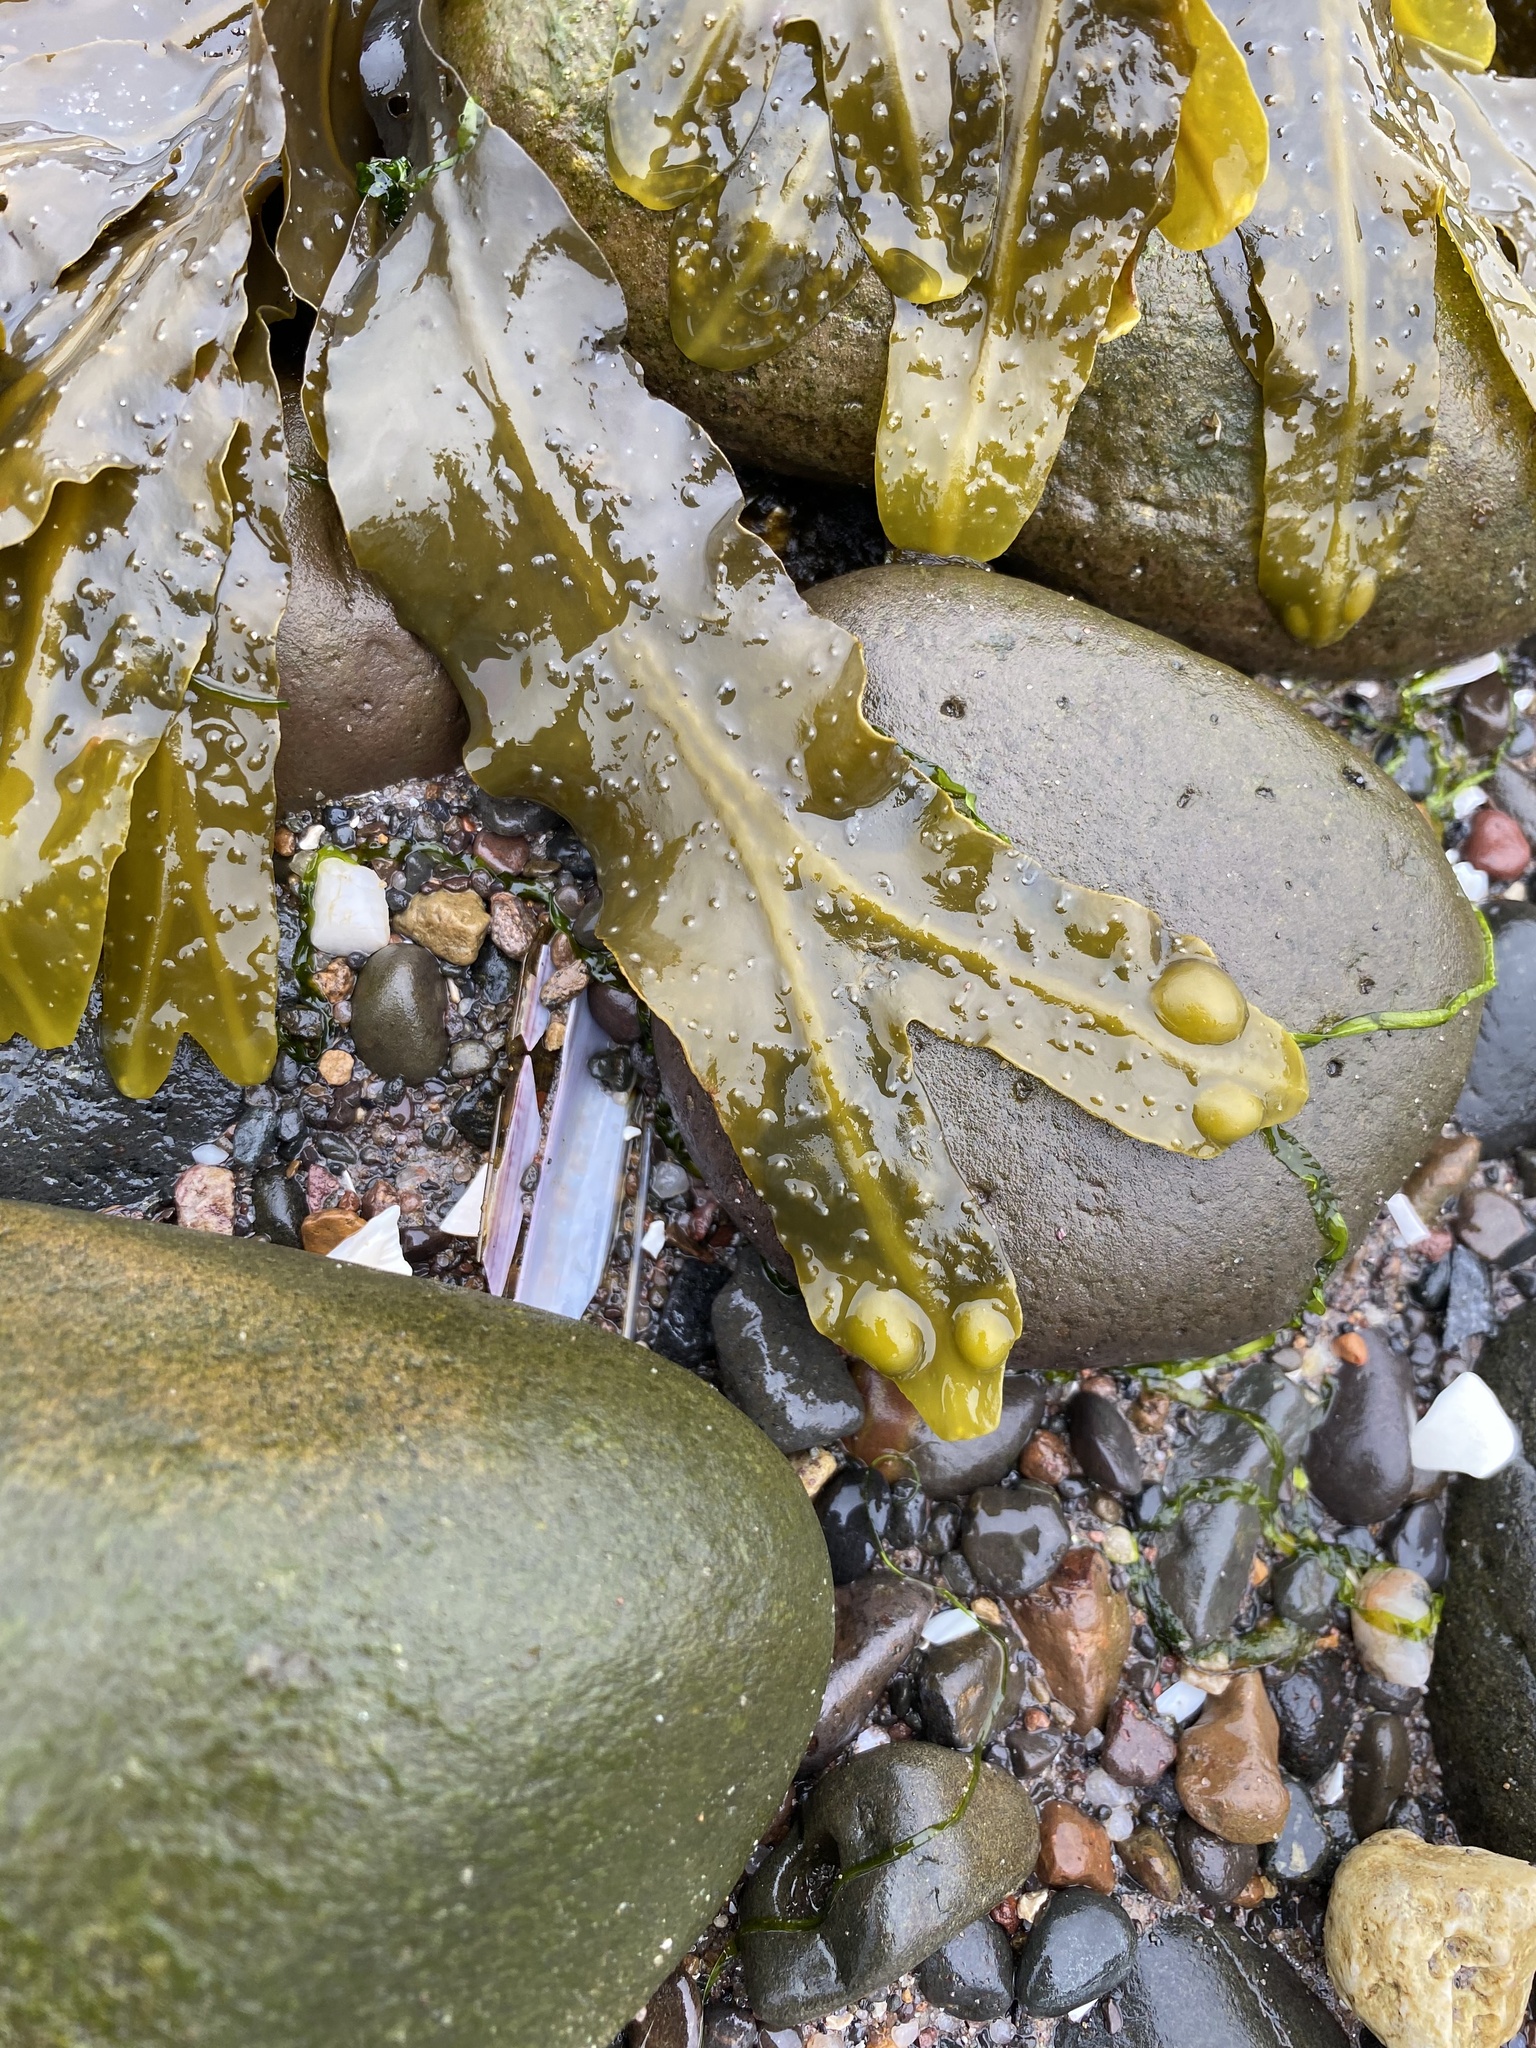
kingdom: Chromista
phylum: Ochrophyta
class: Phaeophyceae
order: Fucales
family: Fucaceae
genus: Fucus
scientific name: Fucus vesiculosus
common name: Bladder wrack
